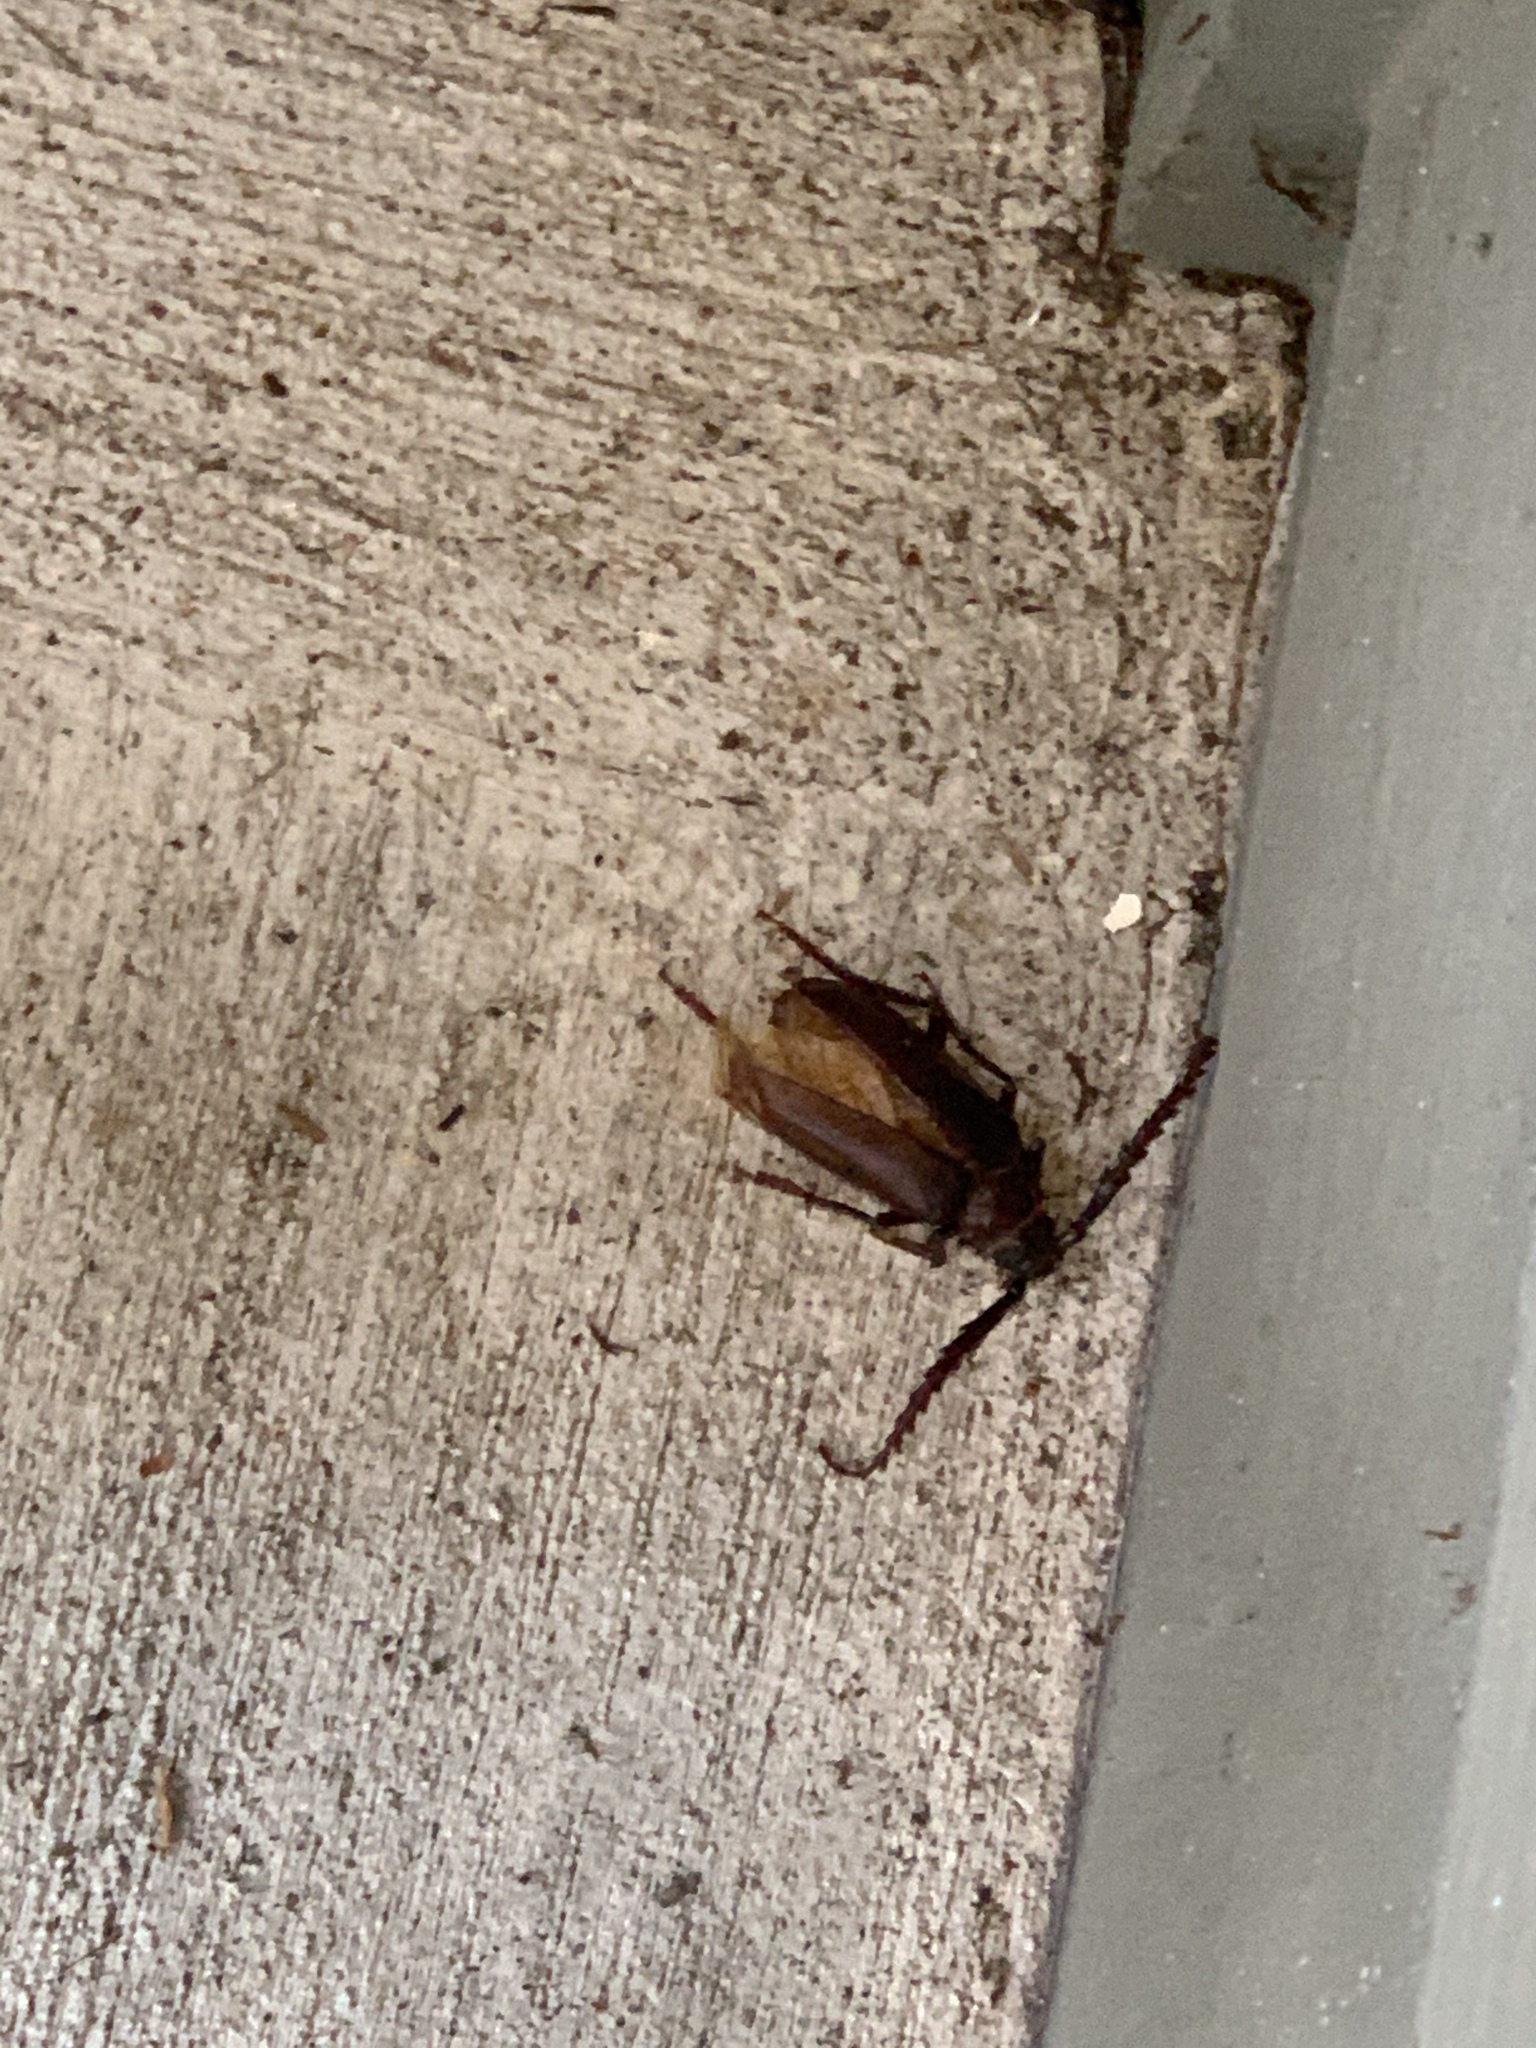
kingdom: Animalia
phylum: Arthropoda
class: Insecta
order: Coleoptera
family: Cerambycidae
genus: Prionus
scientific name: Prionus californicus
